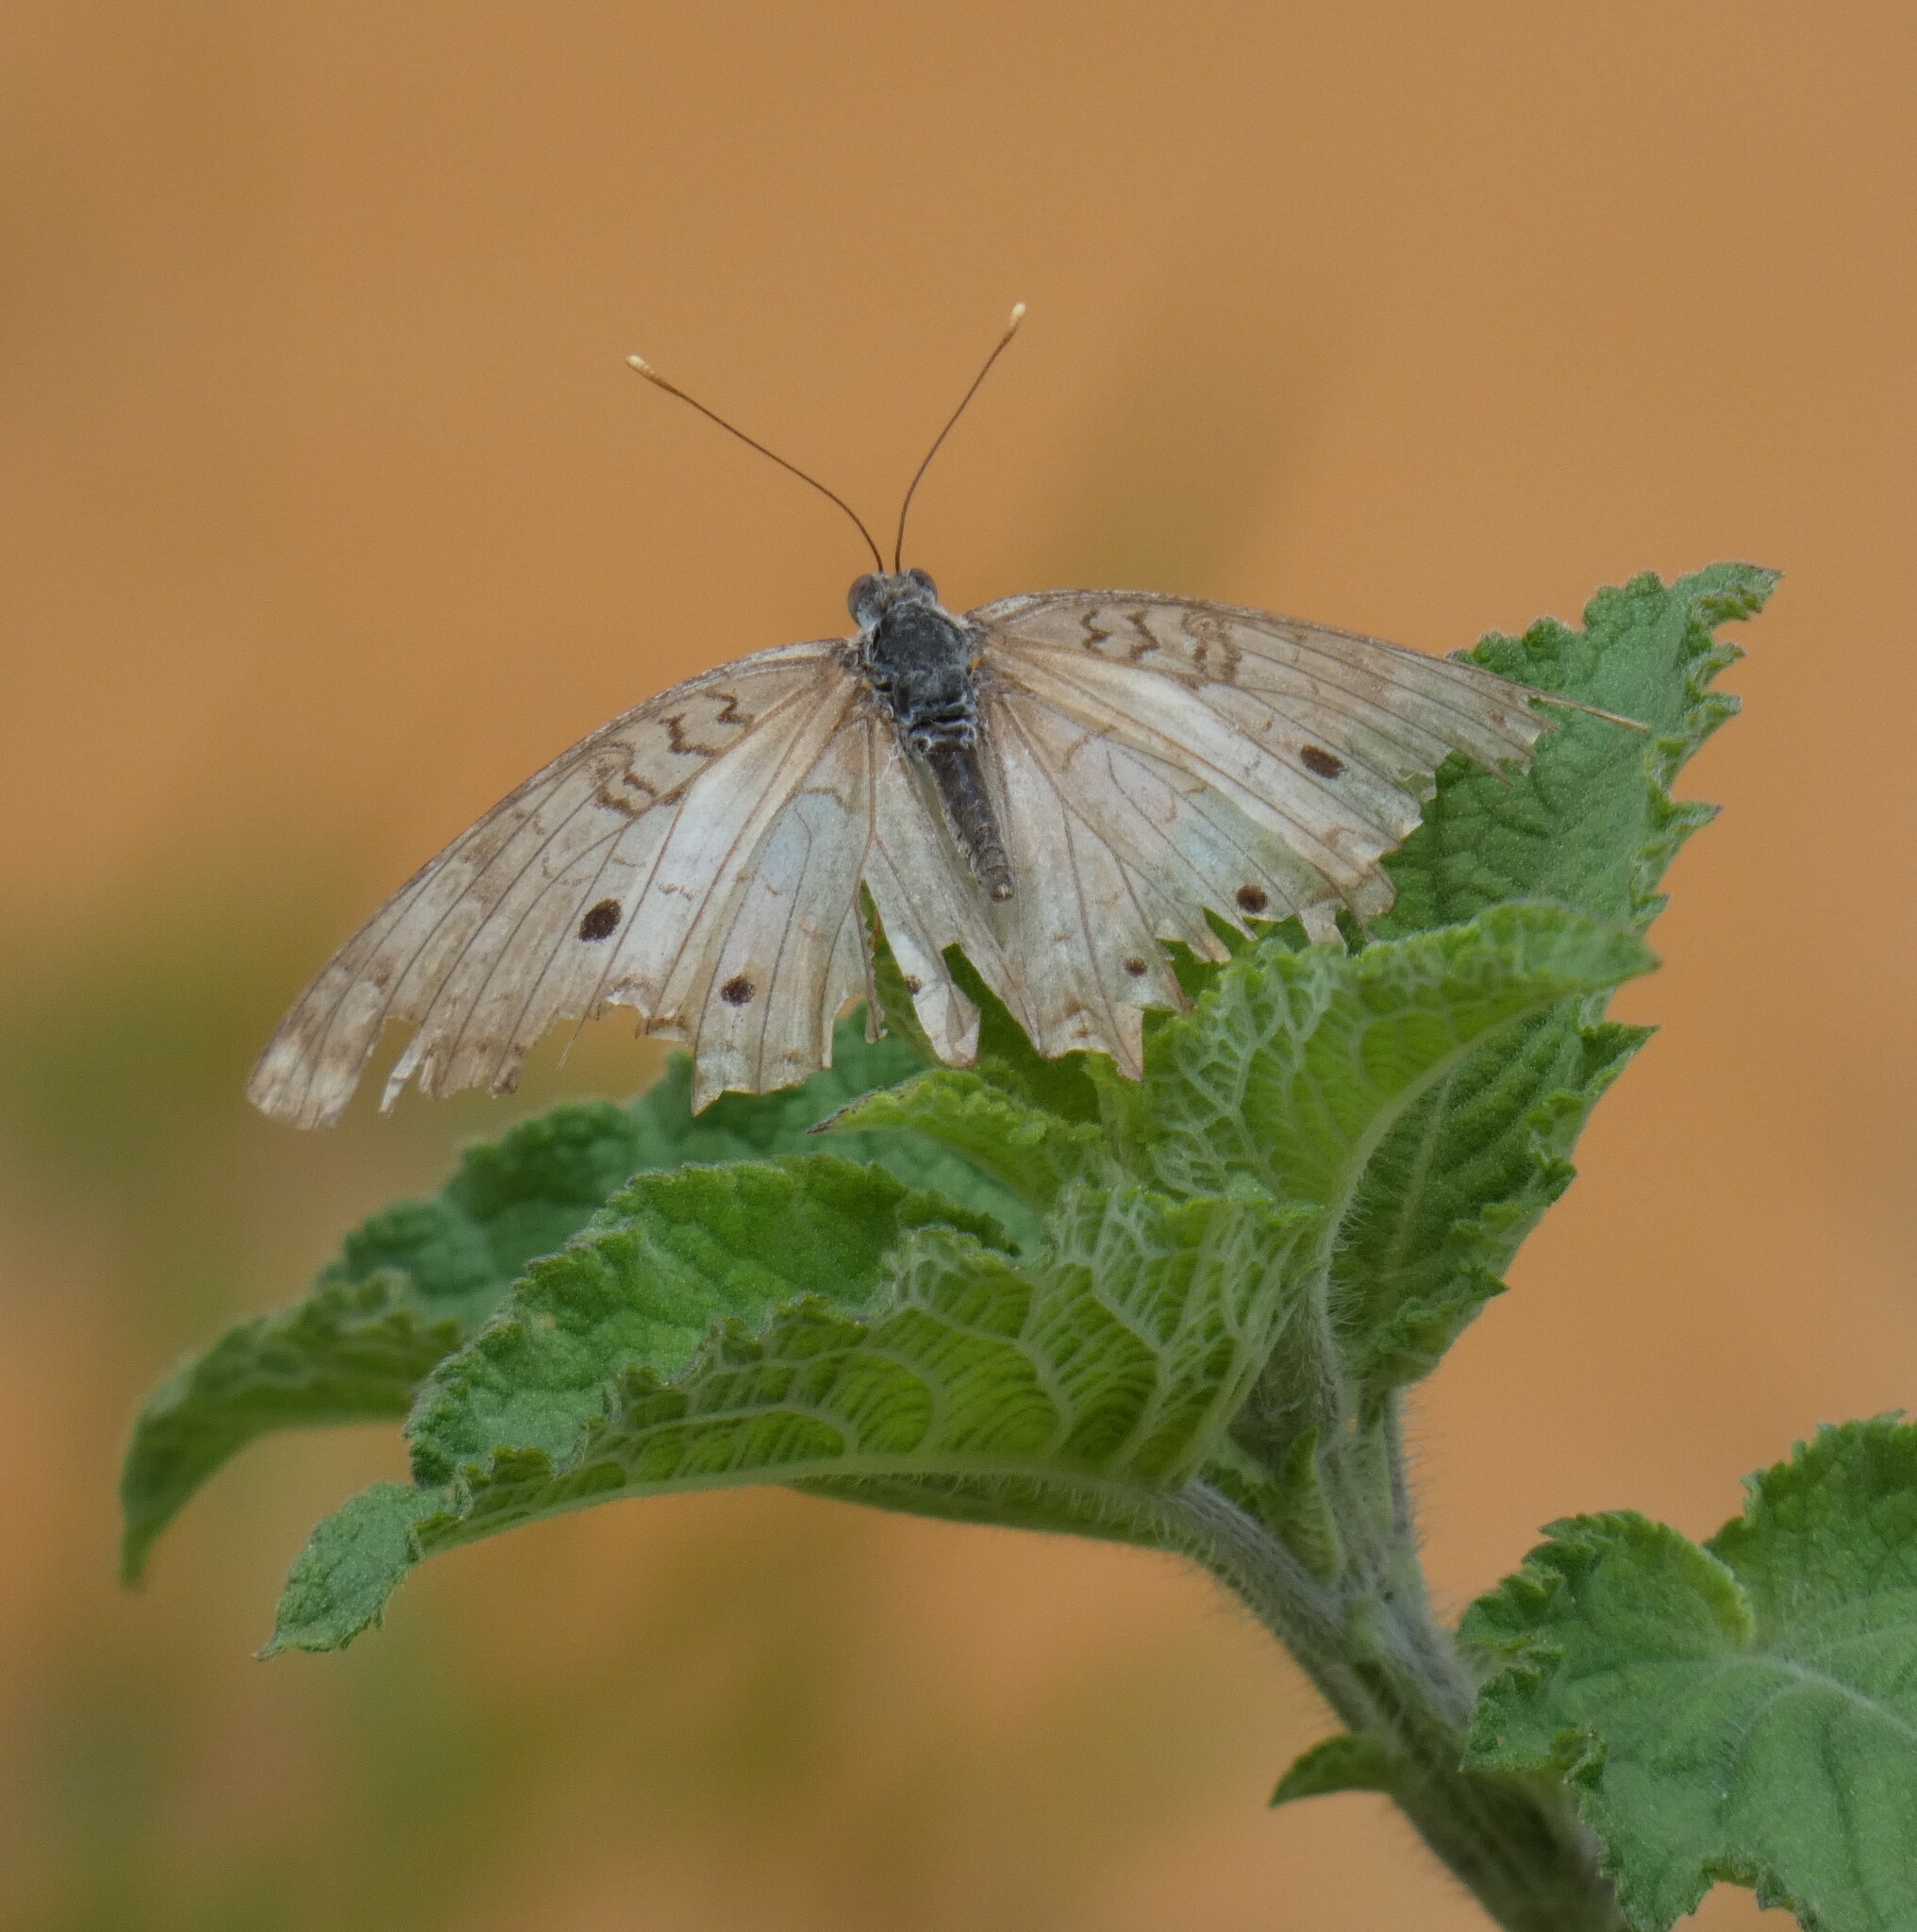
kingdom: Animalia
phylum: Arthropoda
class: Insecta
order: Lepidoptera
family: Nymphalidae
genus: Anartia
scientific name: Anartia jatrophae
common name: White peacock
